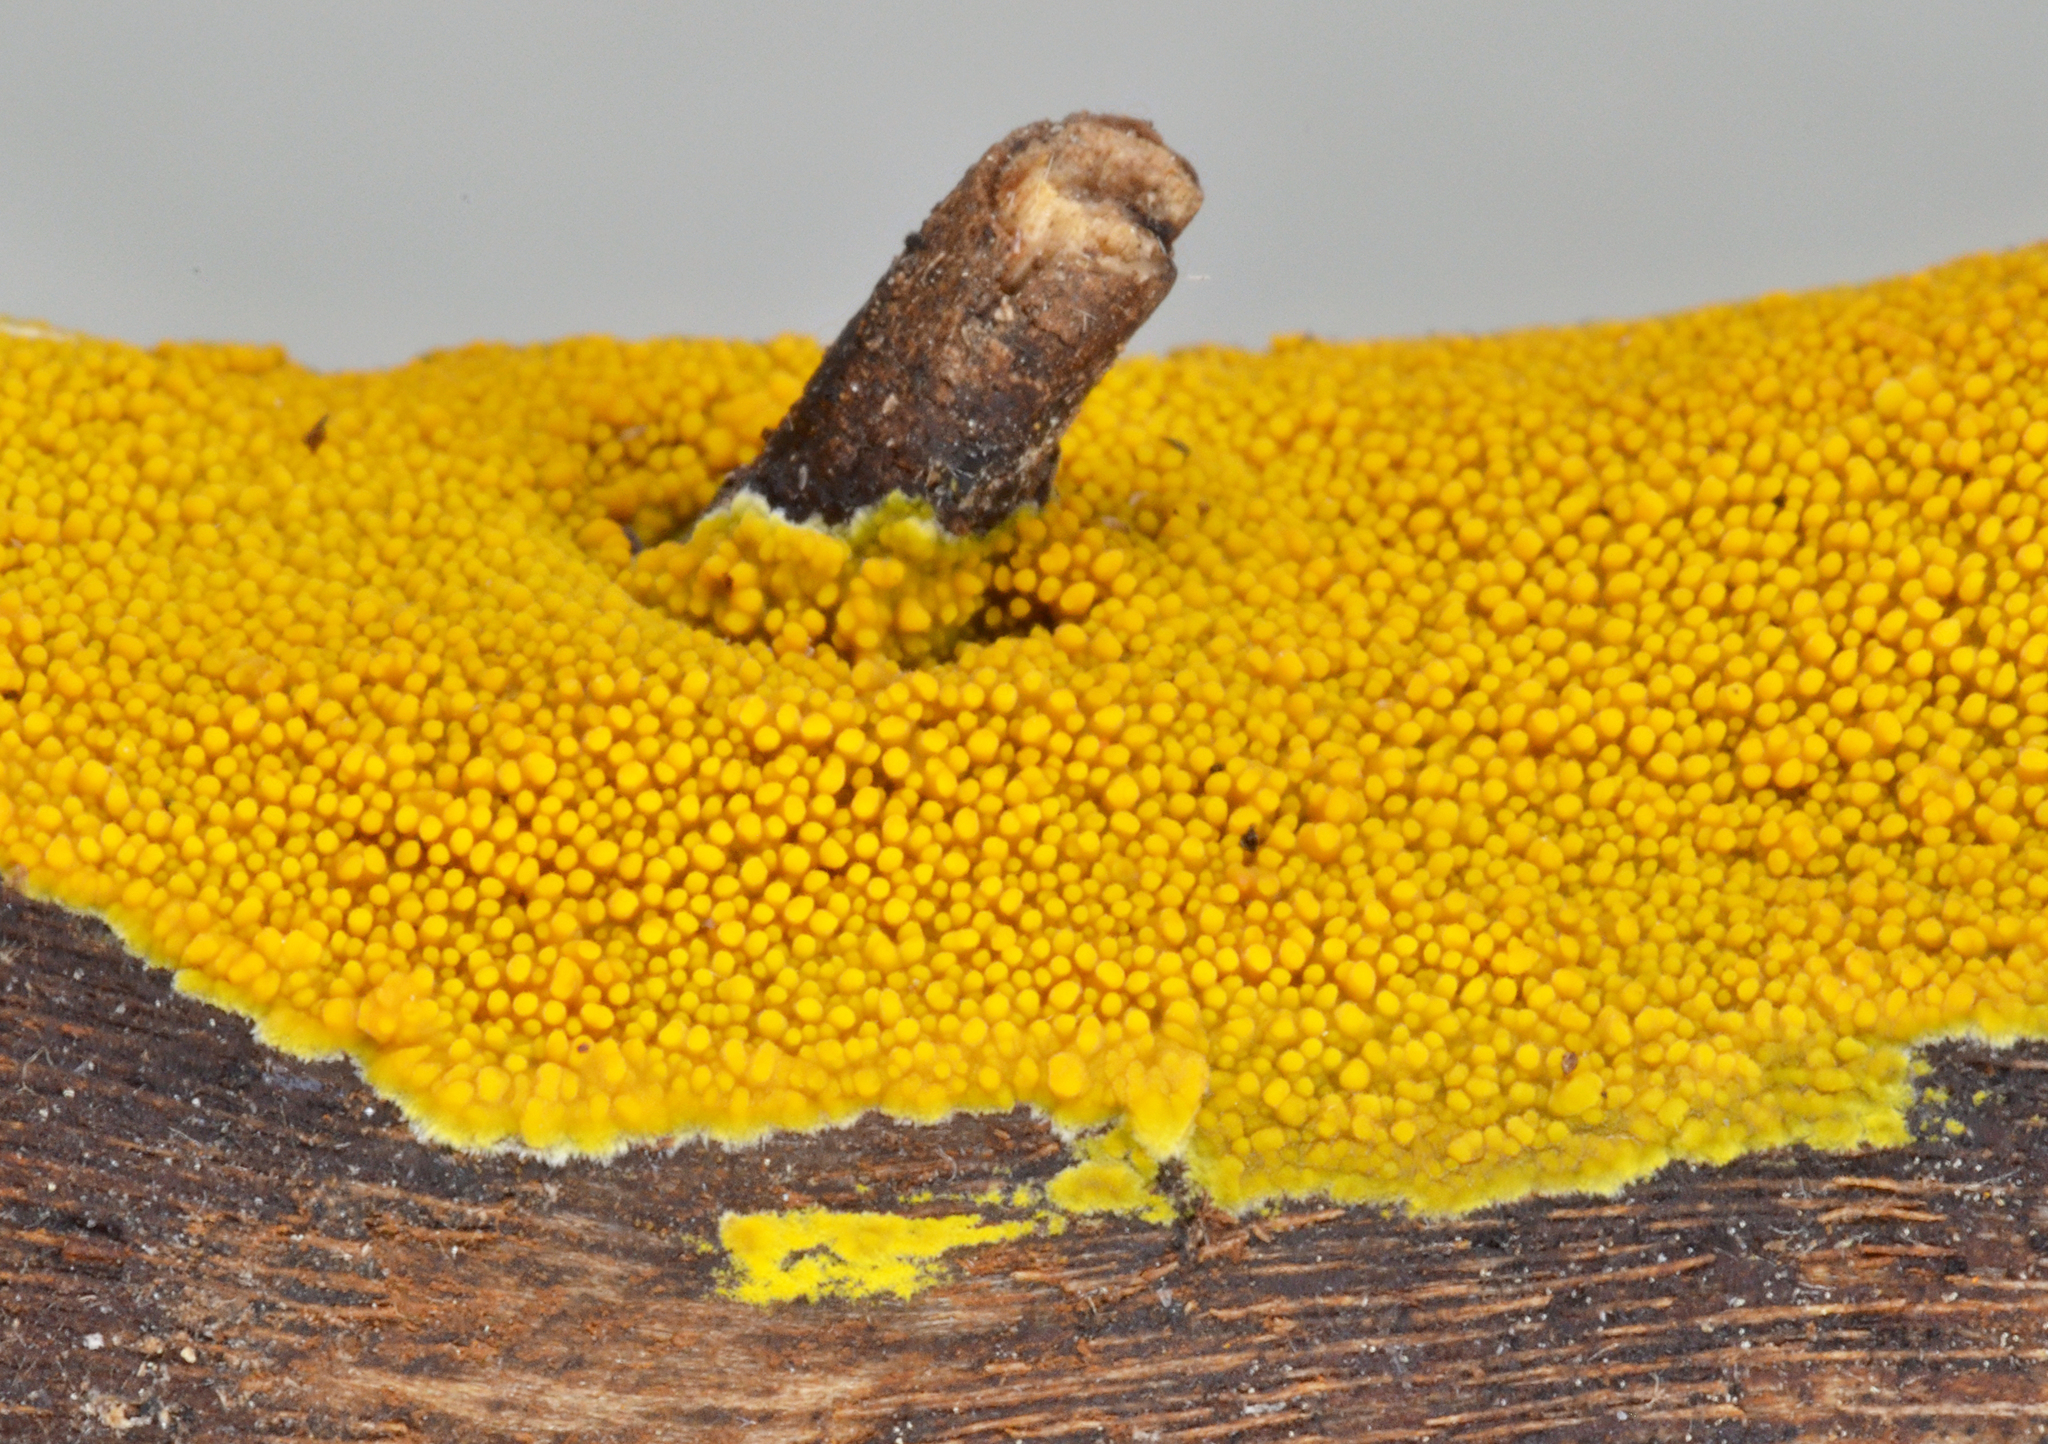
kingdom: Fungi
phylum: Basidiomycota
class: Agaricomycetes
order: Polyporales
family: Meruliaceae
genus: Phlebia
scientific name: Phlebia subceracea
